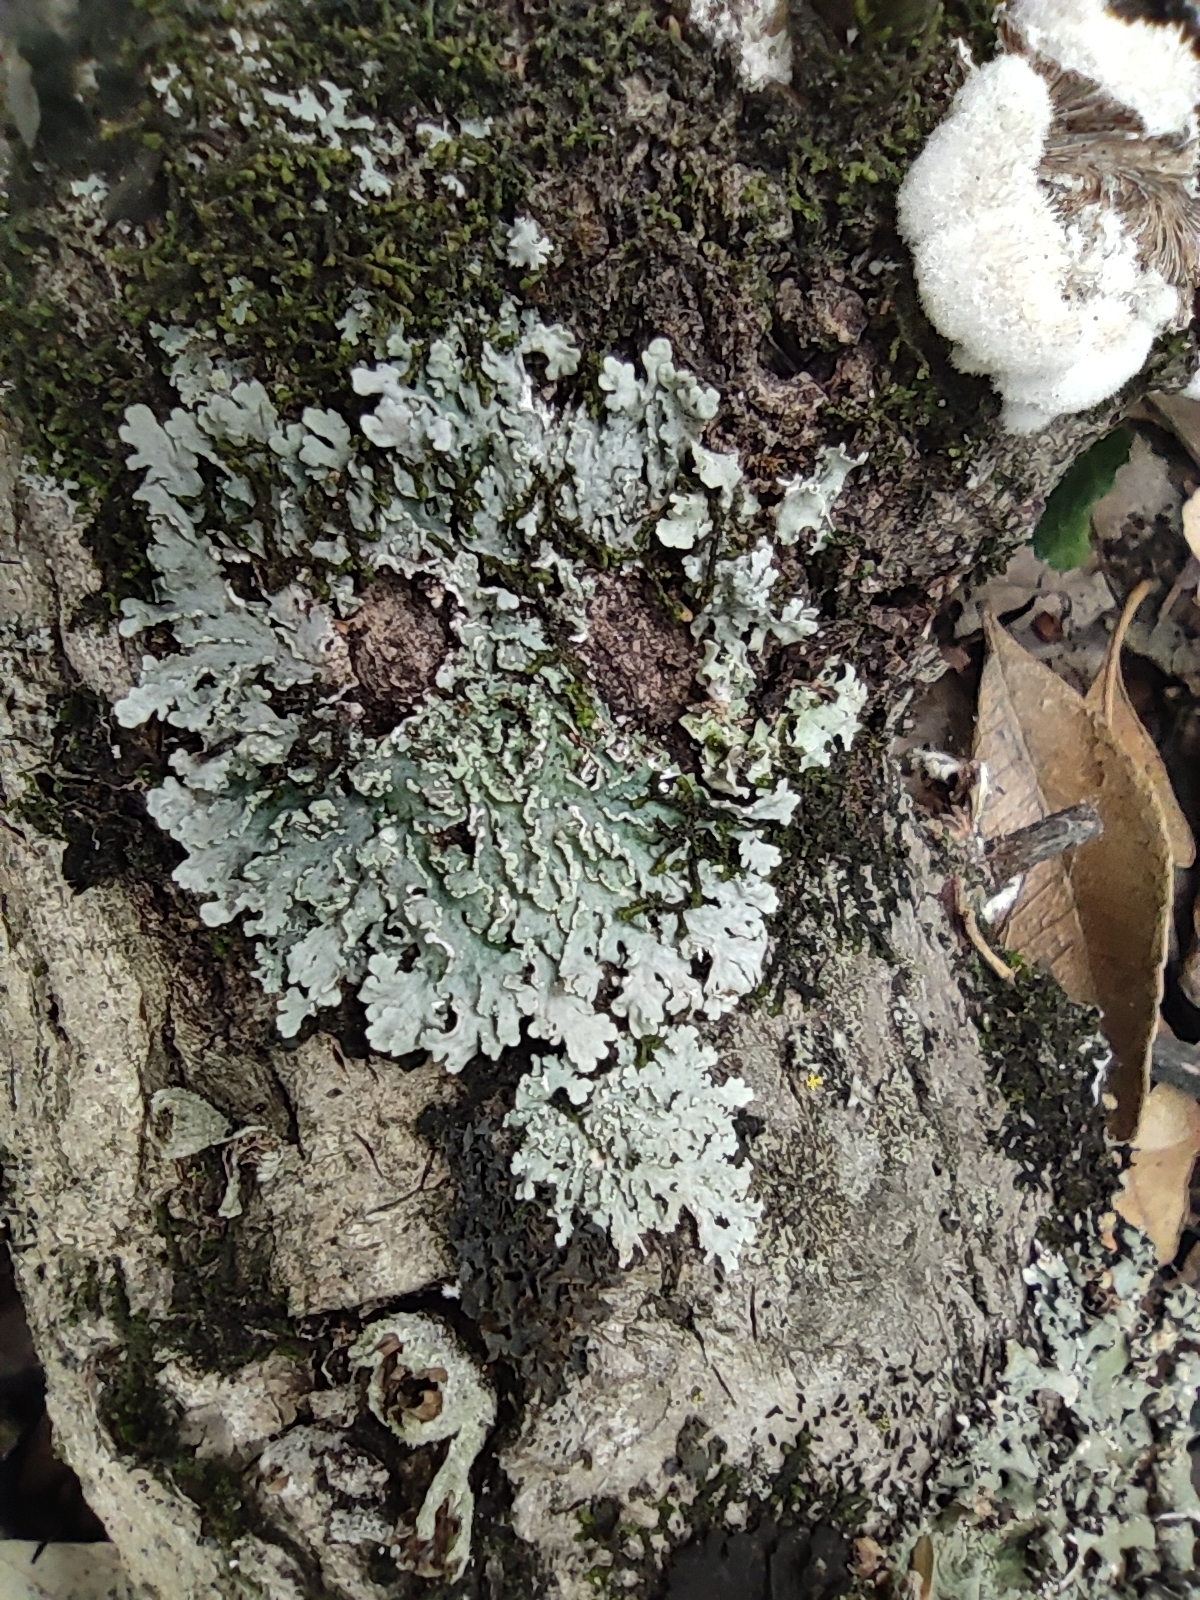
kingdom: Fungi
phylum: Ascomycota
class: Lecanoromycetes
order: Caliciales
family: Physciaceae
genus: Polyblastidium
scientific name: Polyblastidium albicans
